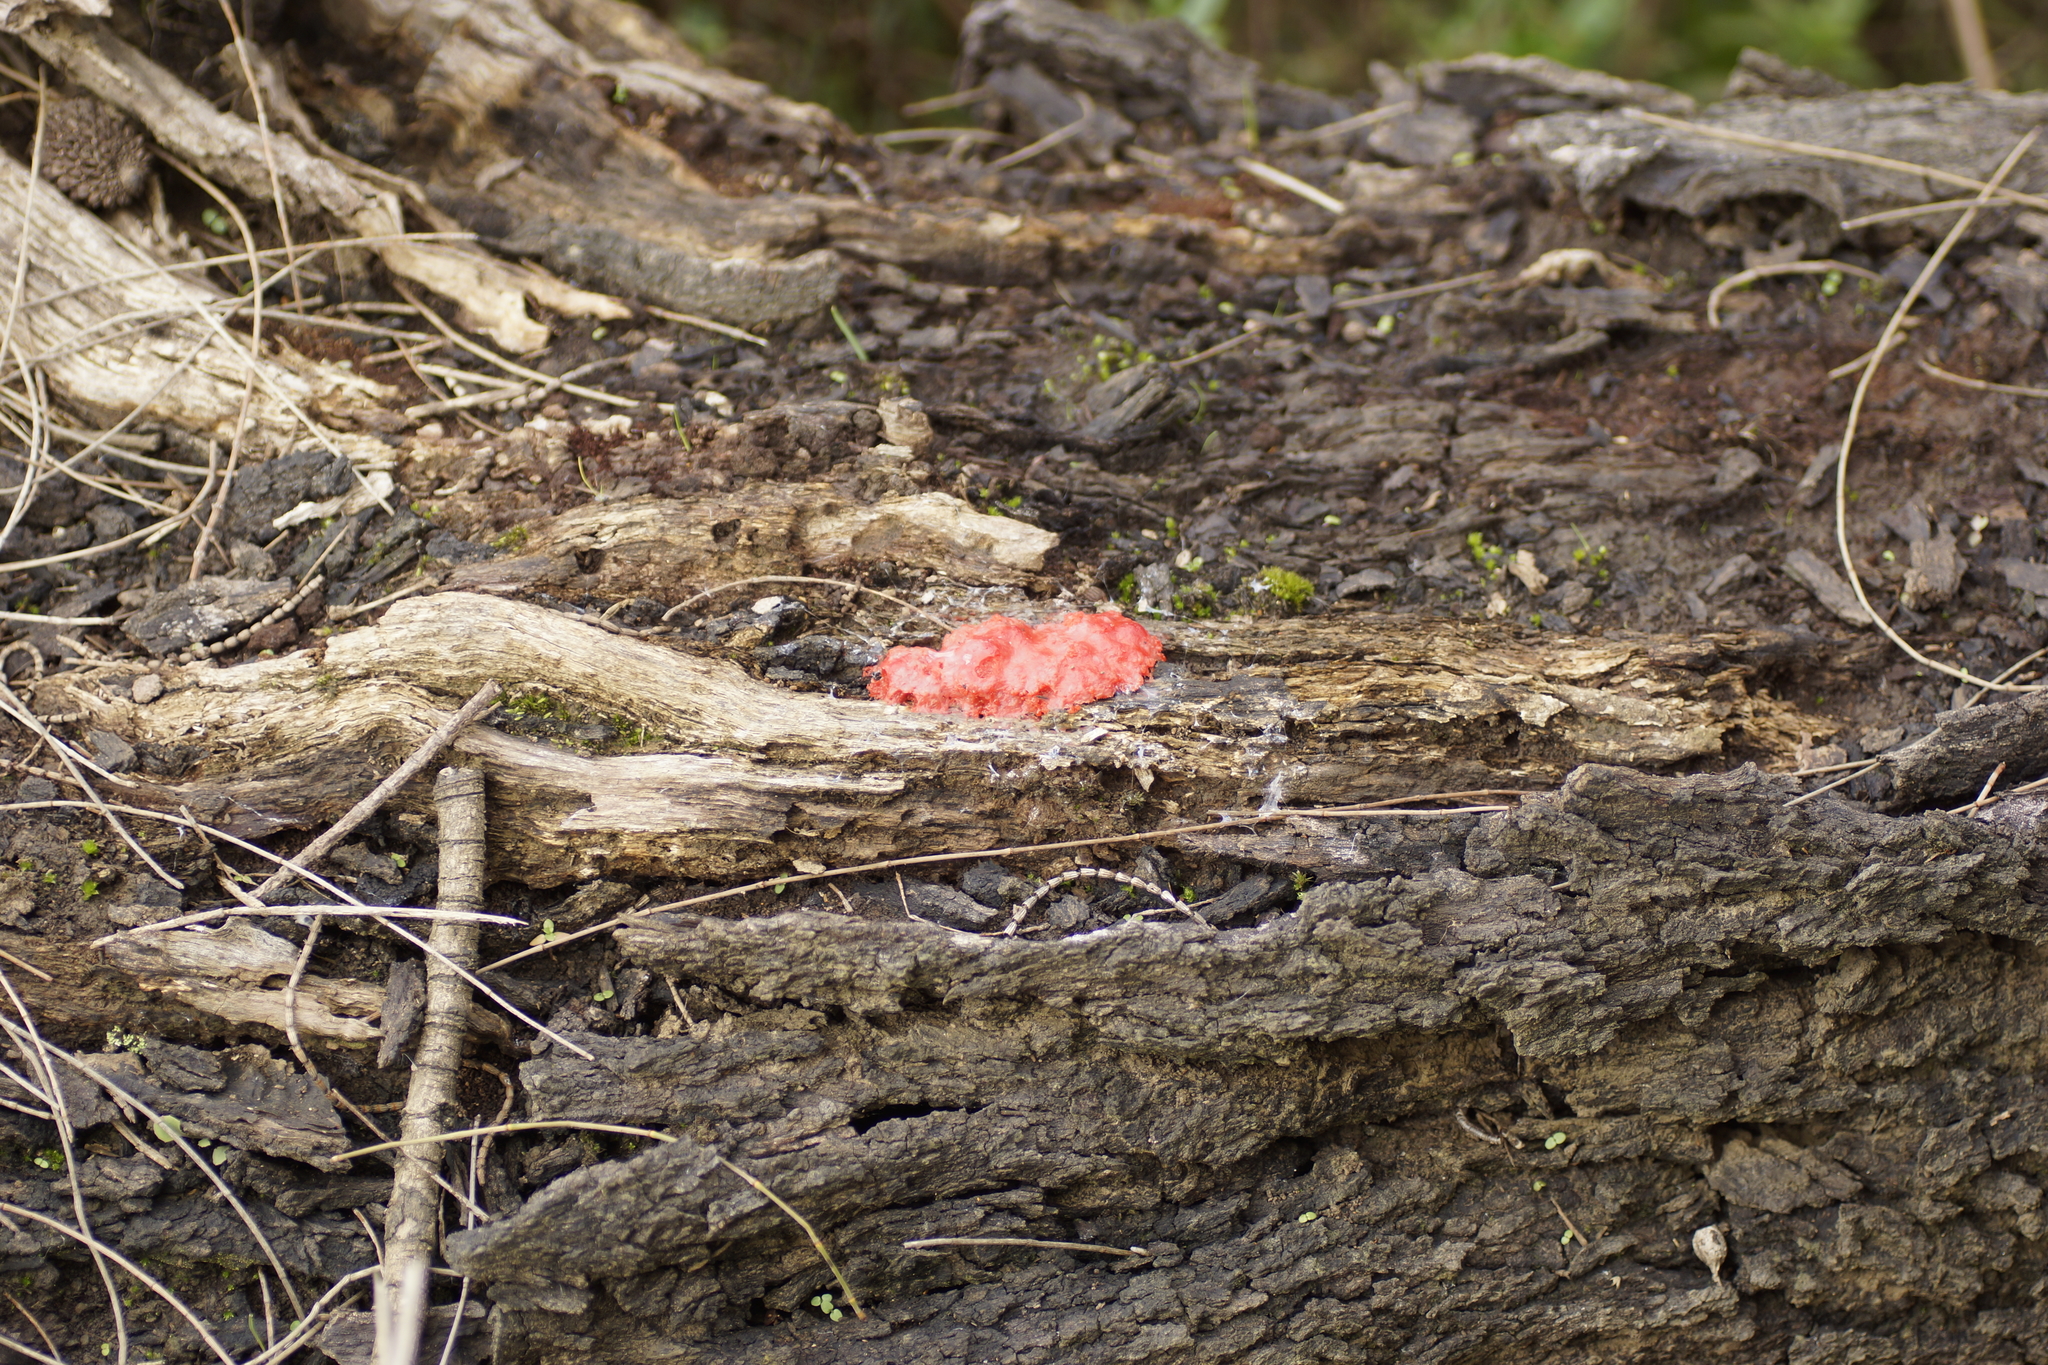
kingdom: Protozoa
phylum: Mycetozoa
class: Myxomycetes
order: Cribrariales
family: Tubiferaceae
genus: Tubifera
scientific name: Tubifera ferruginosa
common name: Red raspberry slime mold
